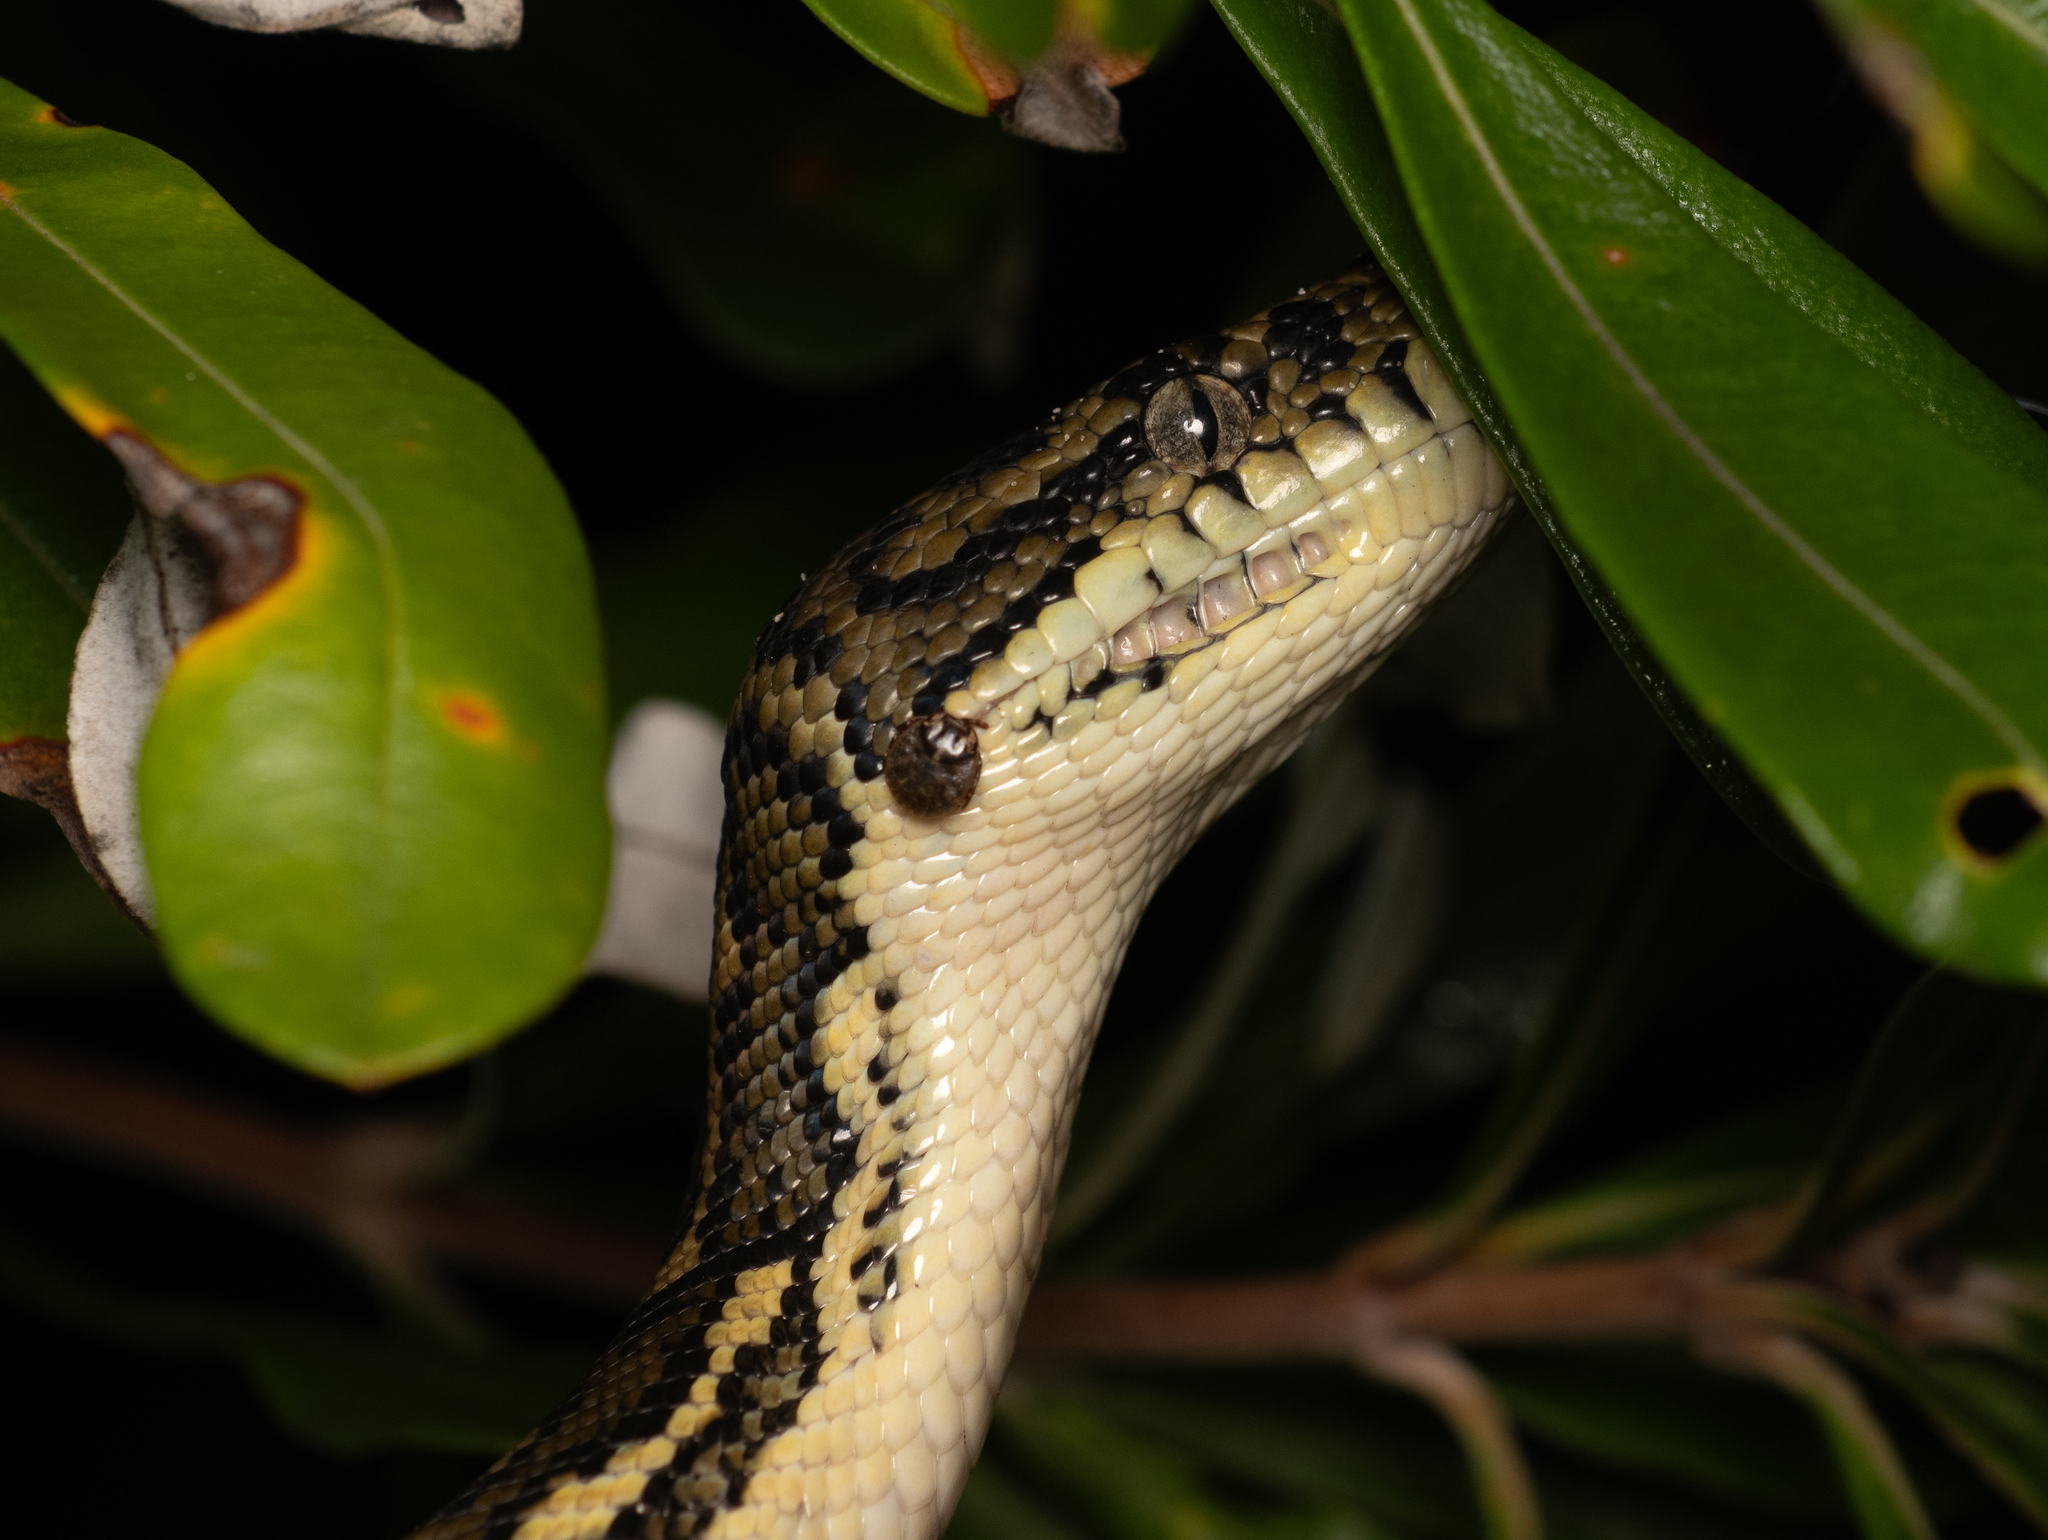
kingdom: Animalia
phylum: Chordata
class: Squamata
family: Pythonidae
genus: Morelia
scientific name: Morelia spilota
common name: Carpet python
